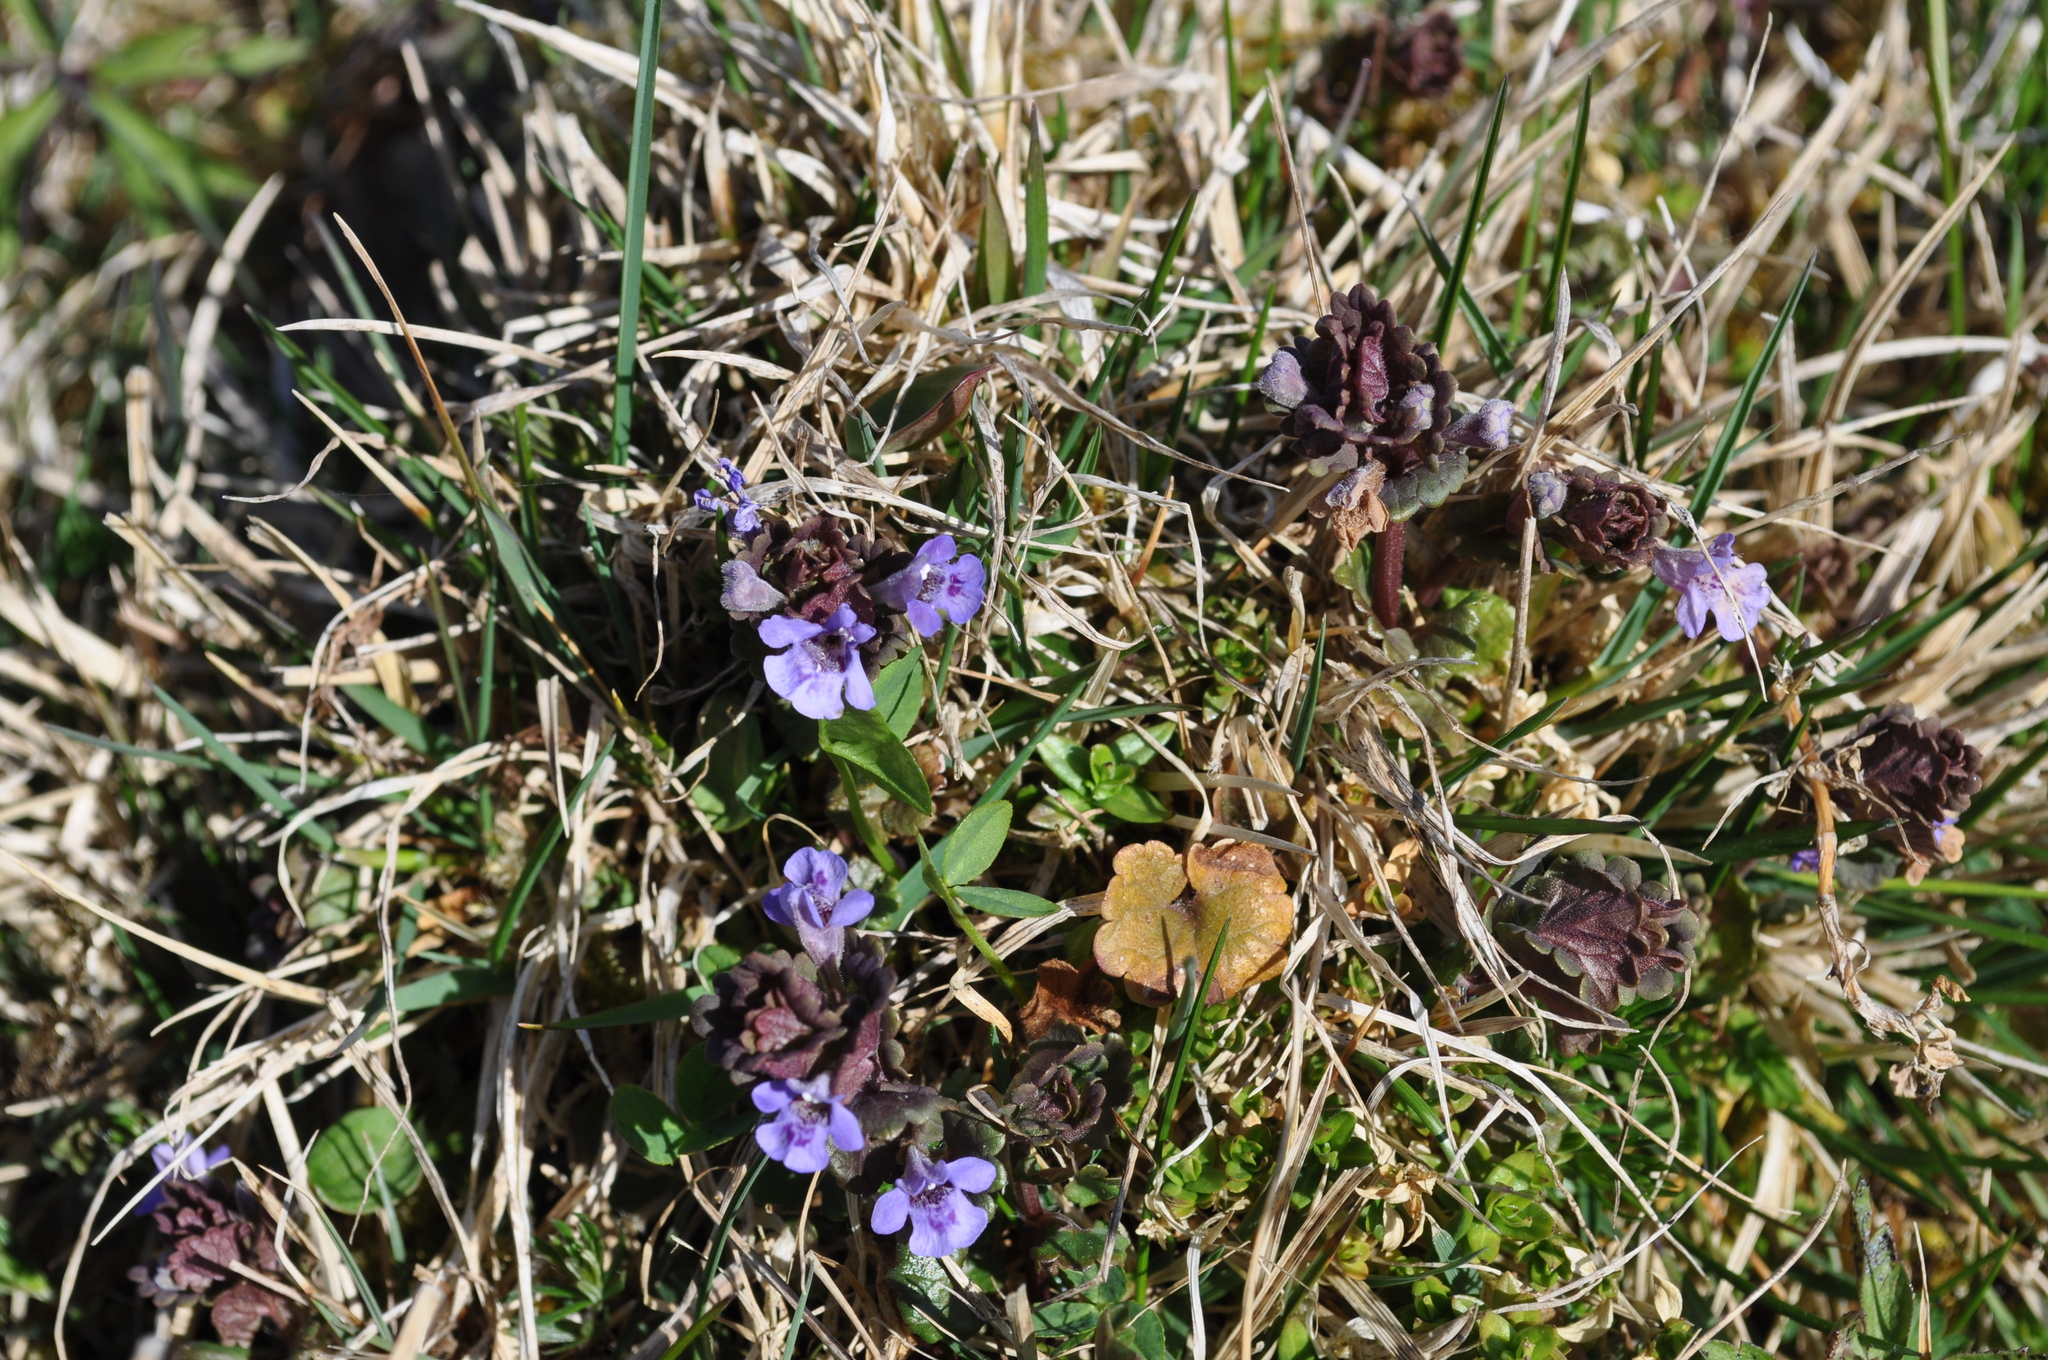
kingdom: Plantae
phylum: Tracheophyta
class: Magnoliopsida
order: Lamiales
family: Lamiaceae
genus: Glechoma
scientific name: Glechoma hederacea
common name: Ground ivy
